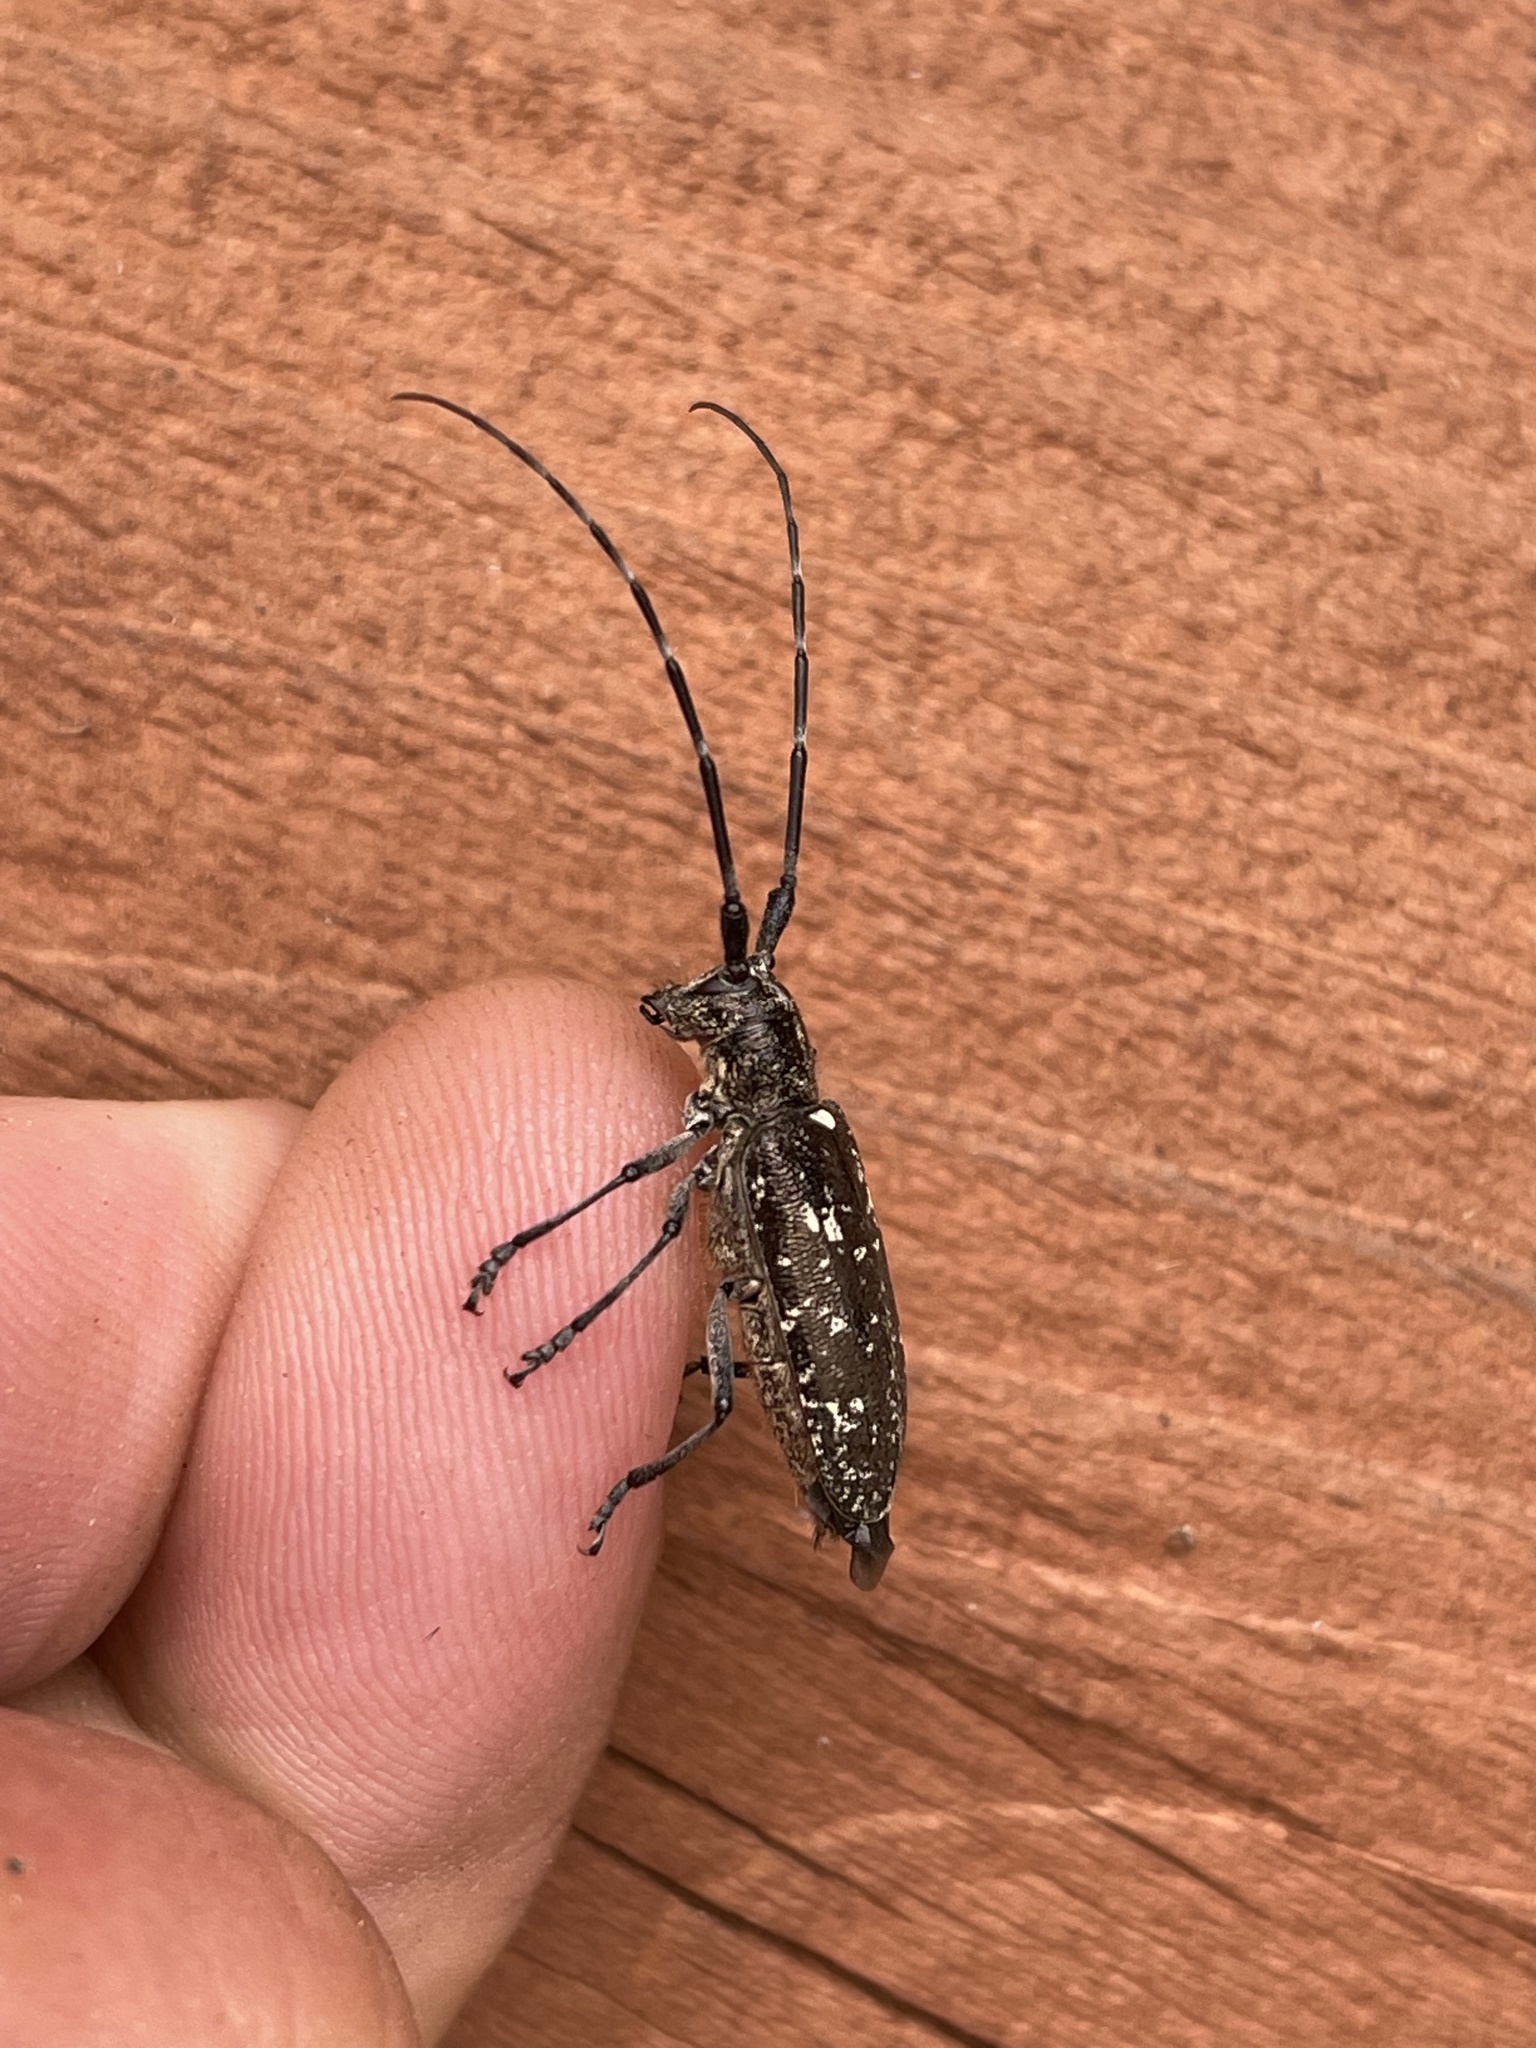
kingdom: Animalia
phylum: Arthropoda
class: Insecta
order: Coleoptera
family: Cerambycidae
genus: Monochamus
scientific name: Monochamus scutellatus
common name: White-spotted sawyer beetle
